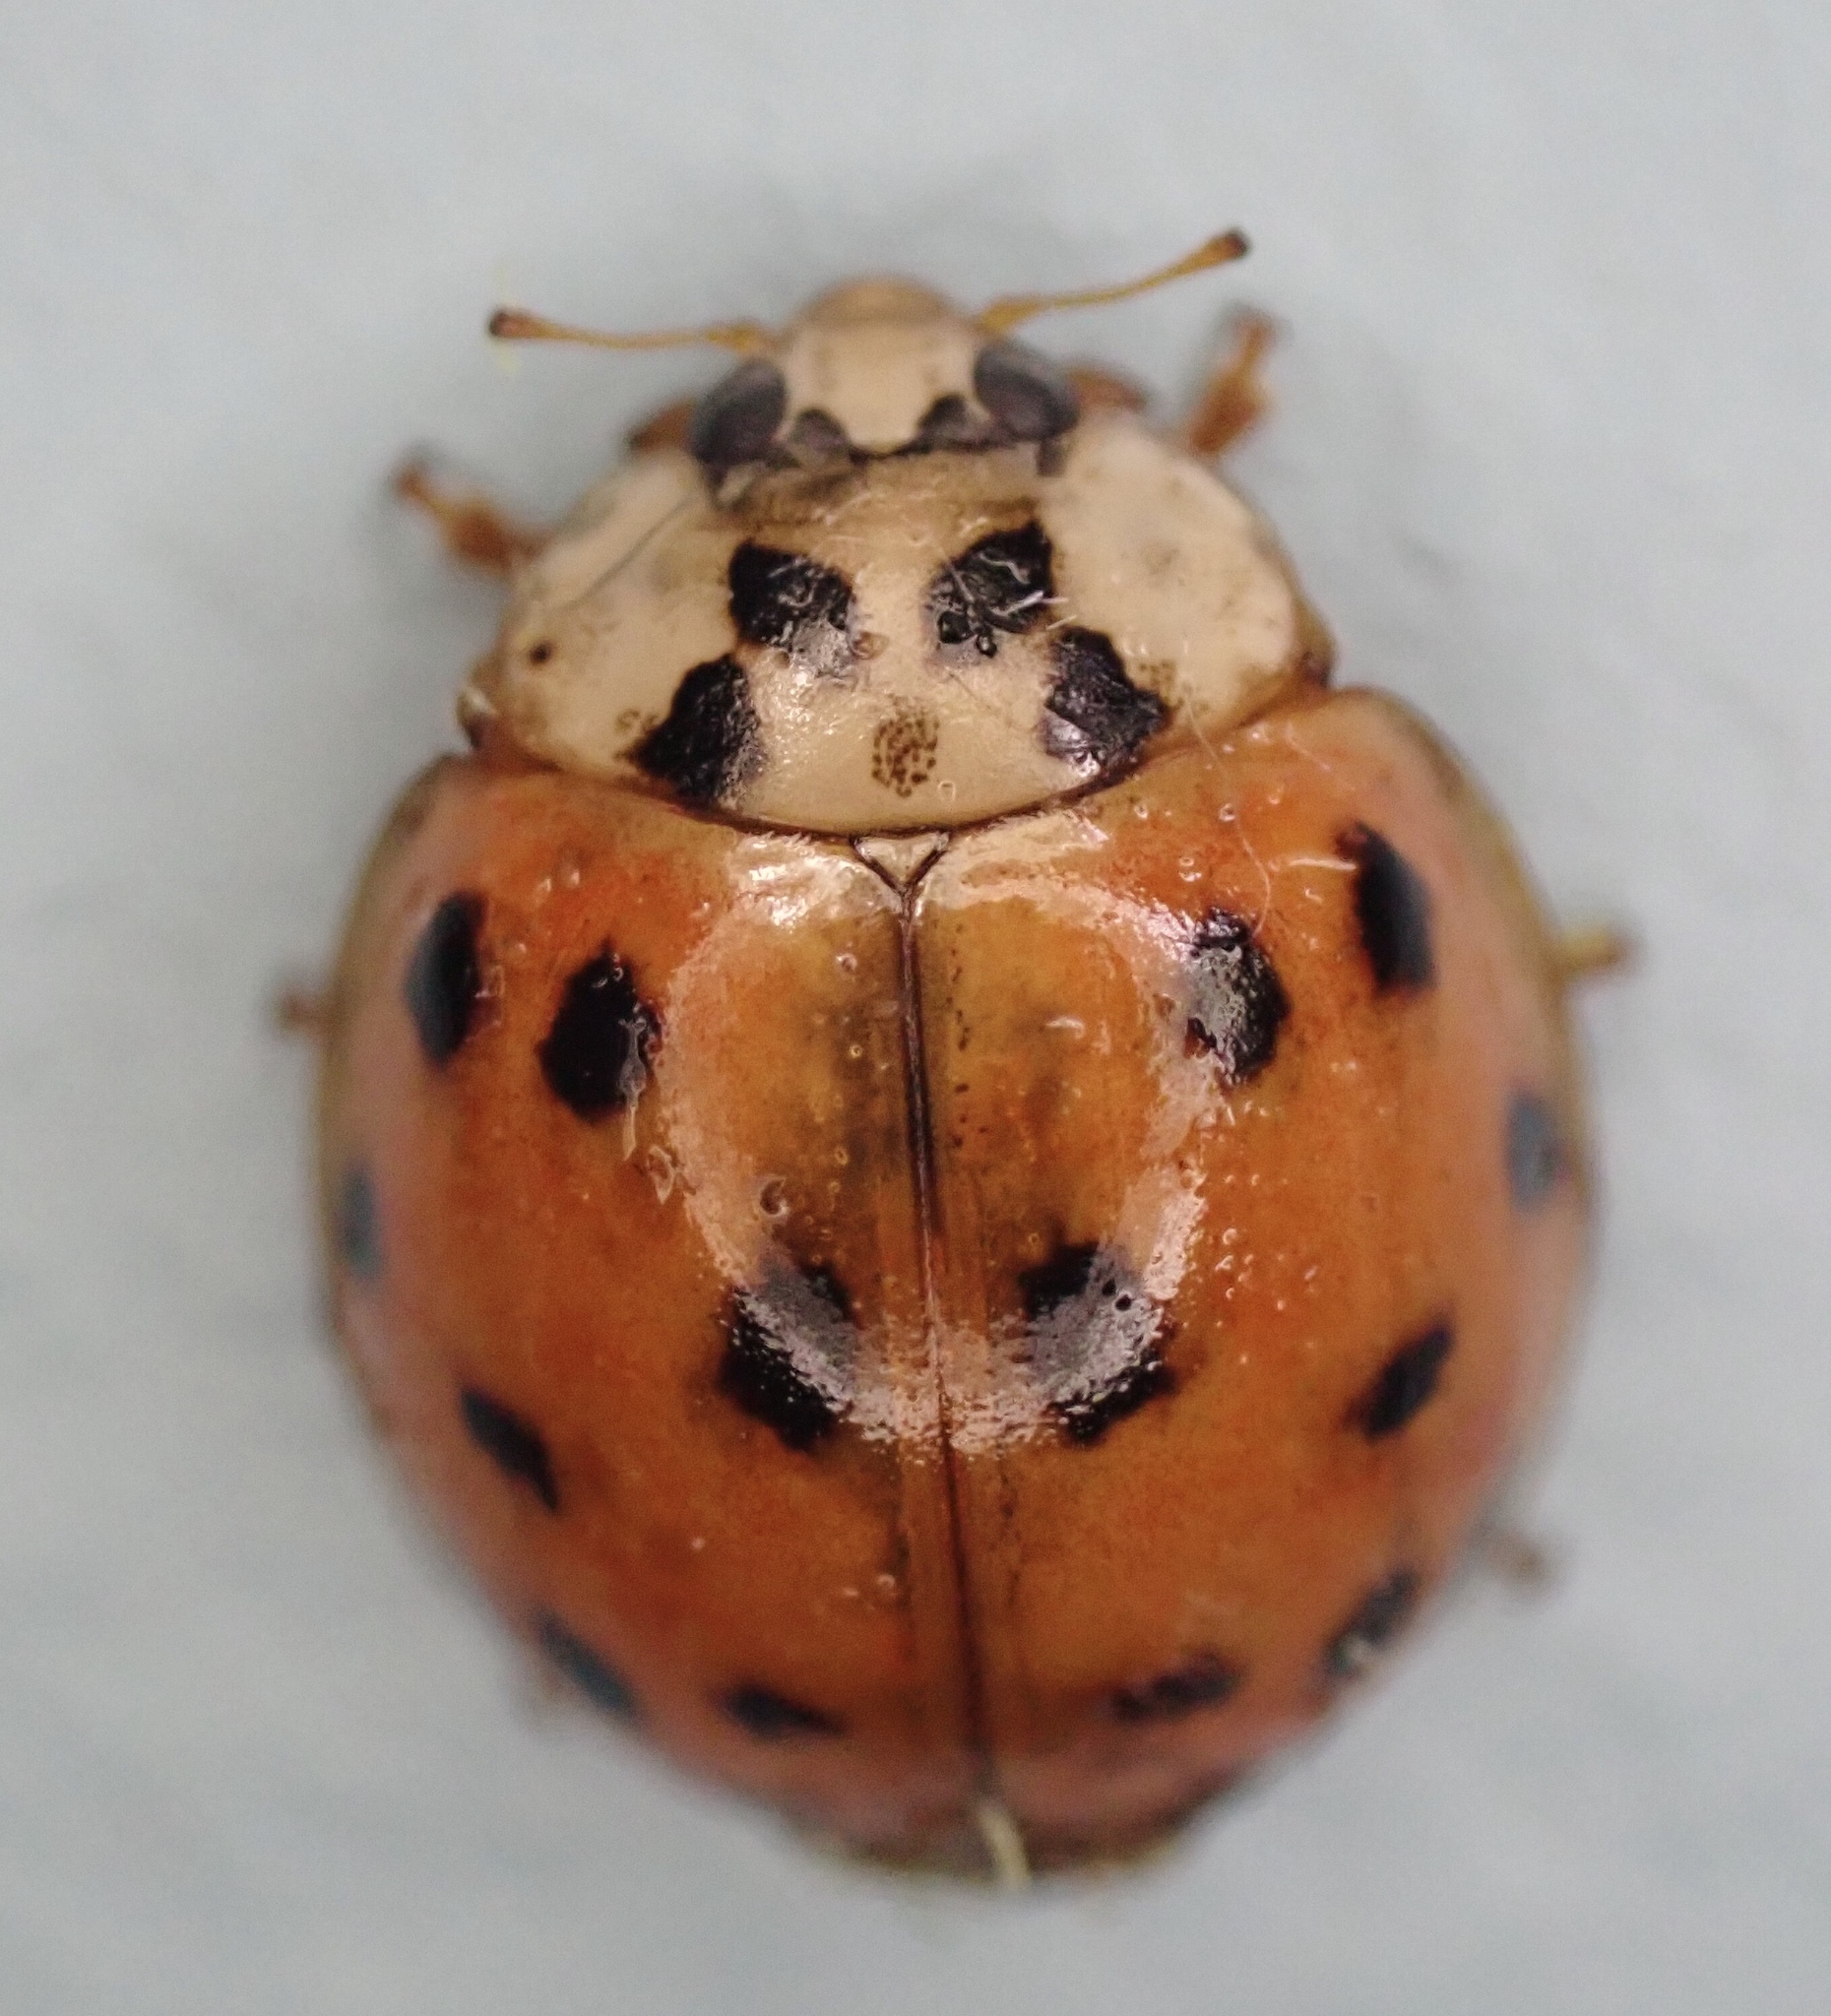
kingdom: Animalia
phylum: Arthropoda
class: Insecta
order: Coleoptera
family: Coccinellidae
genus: Harmonia
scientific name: Harmonia axyridis
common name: Harlequin ladybird
